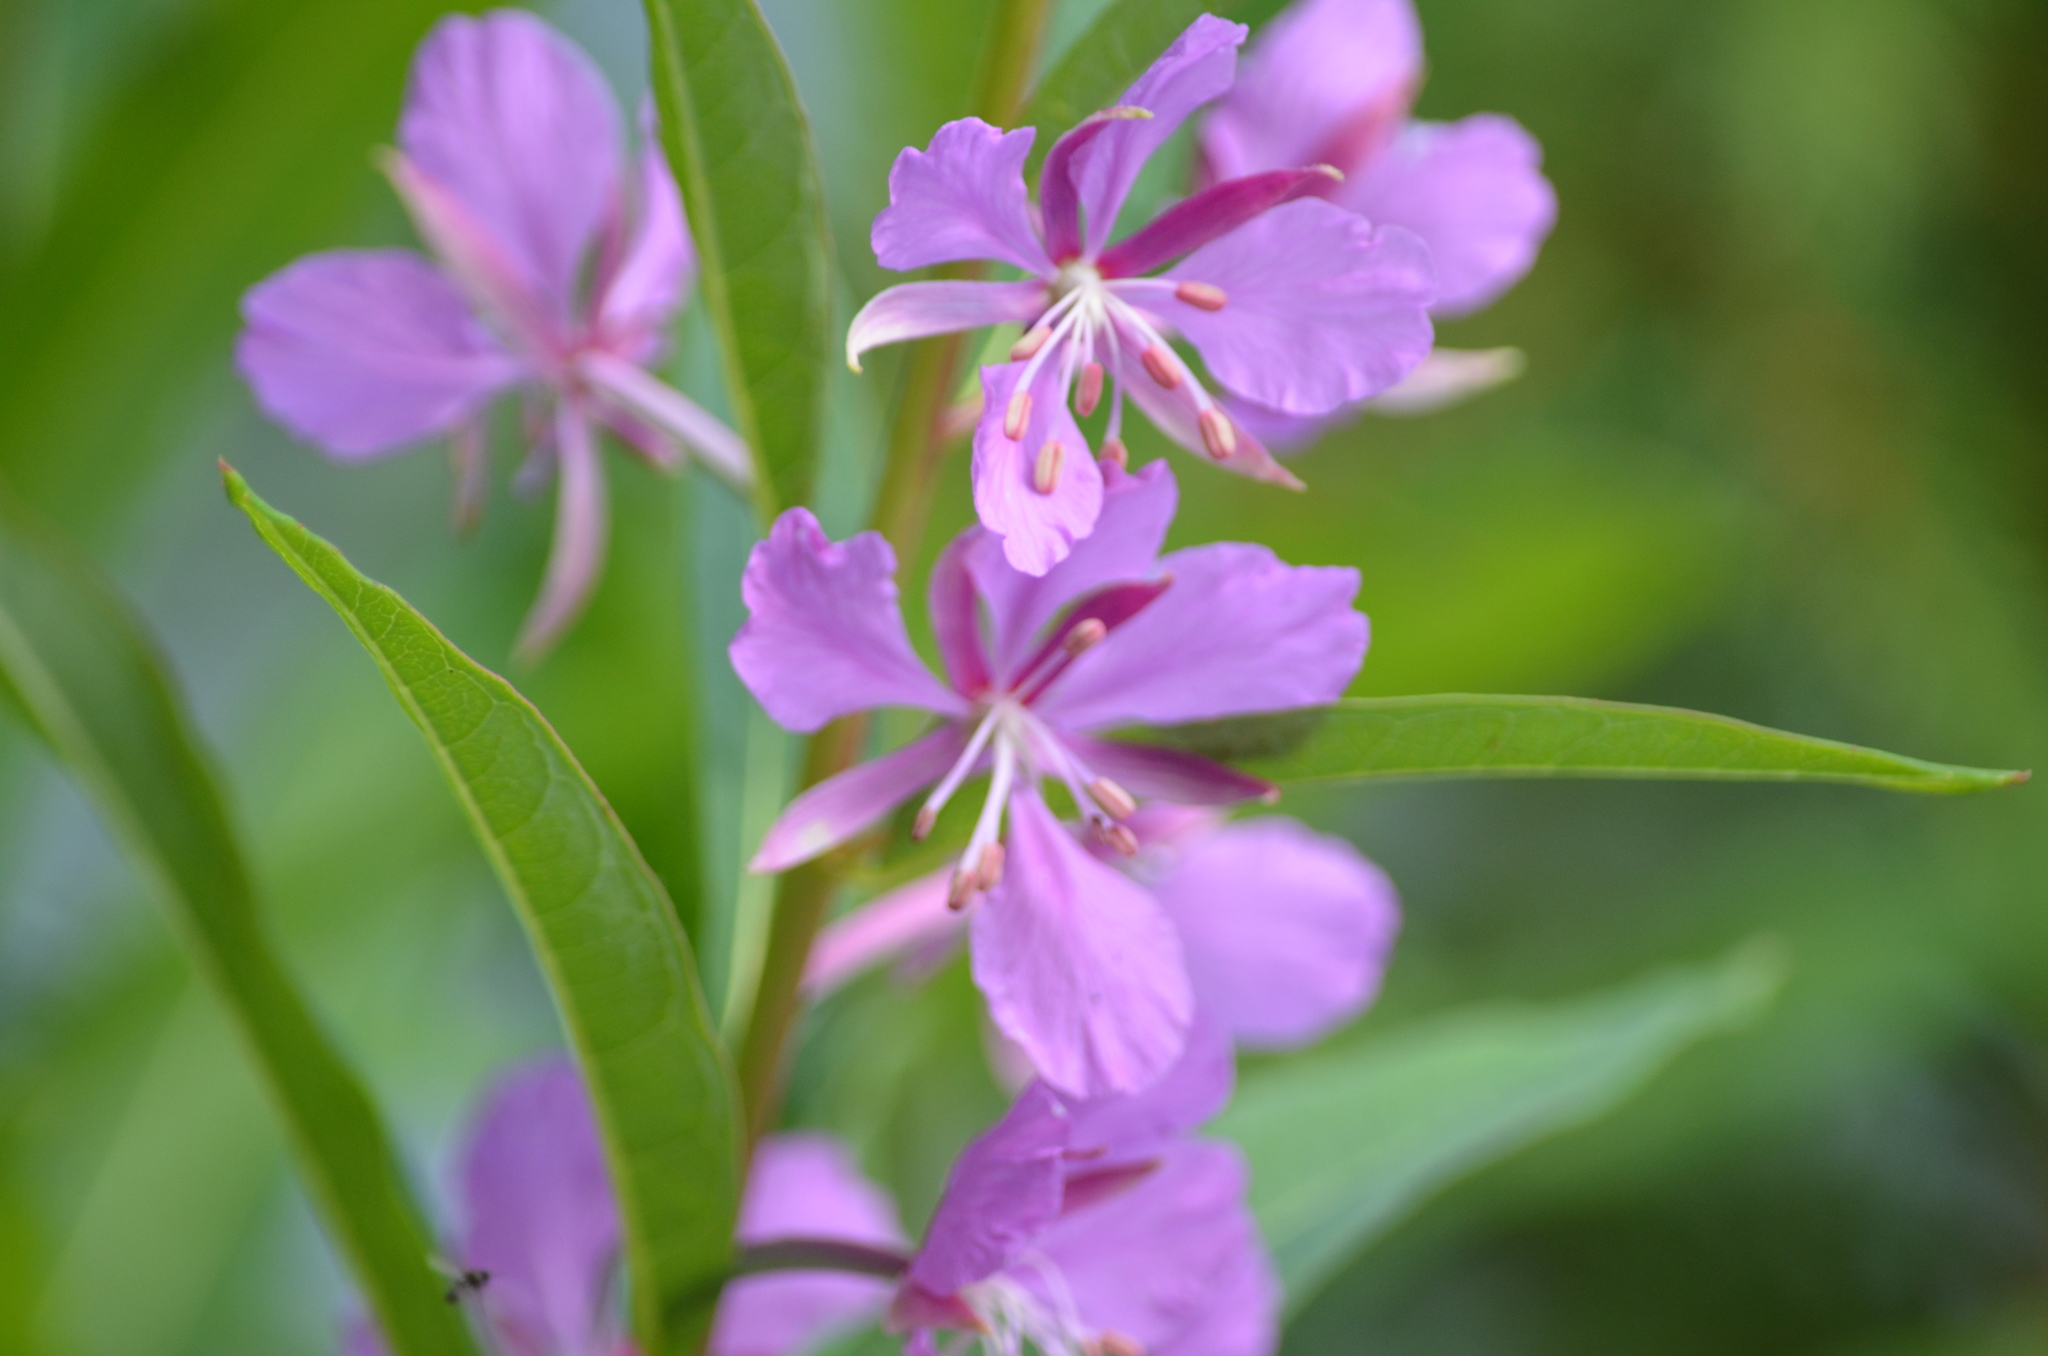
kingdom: Plantae
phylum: Tracheophyta
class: Magnoliopsida
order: Myrtales
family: Onagraceae
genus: Chamaenerion
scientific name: Chamaenerion angustifolium
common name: Fireweed
